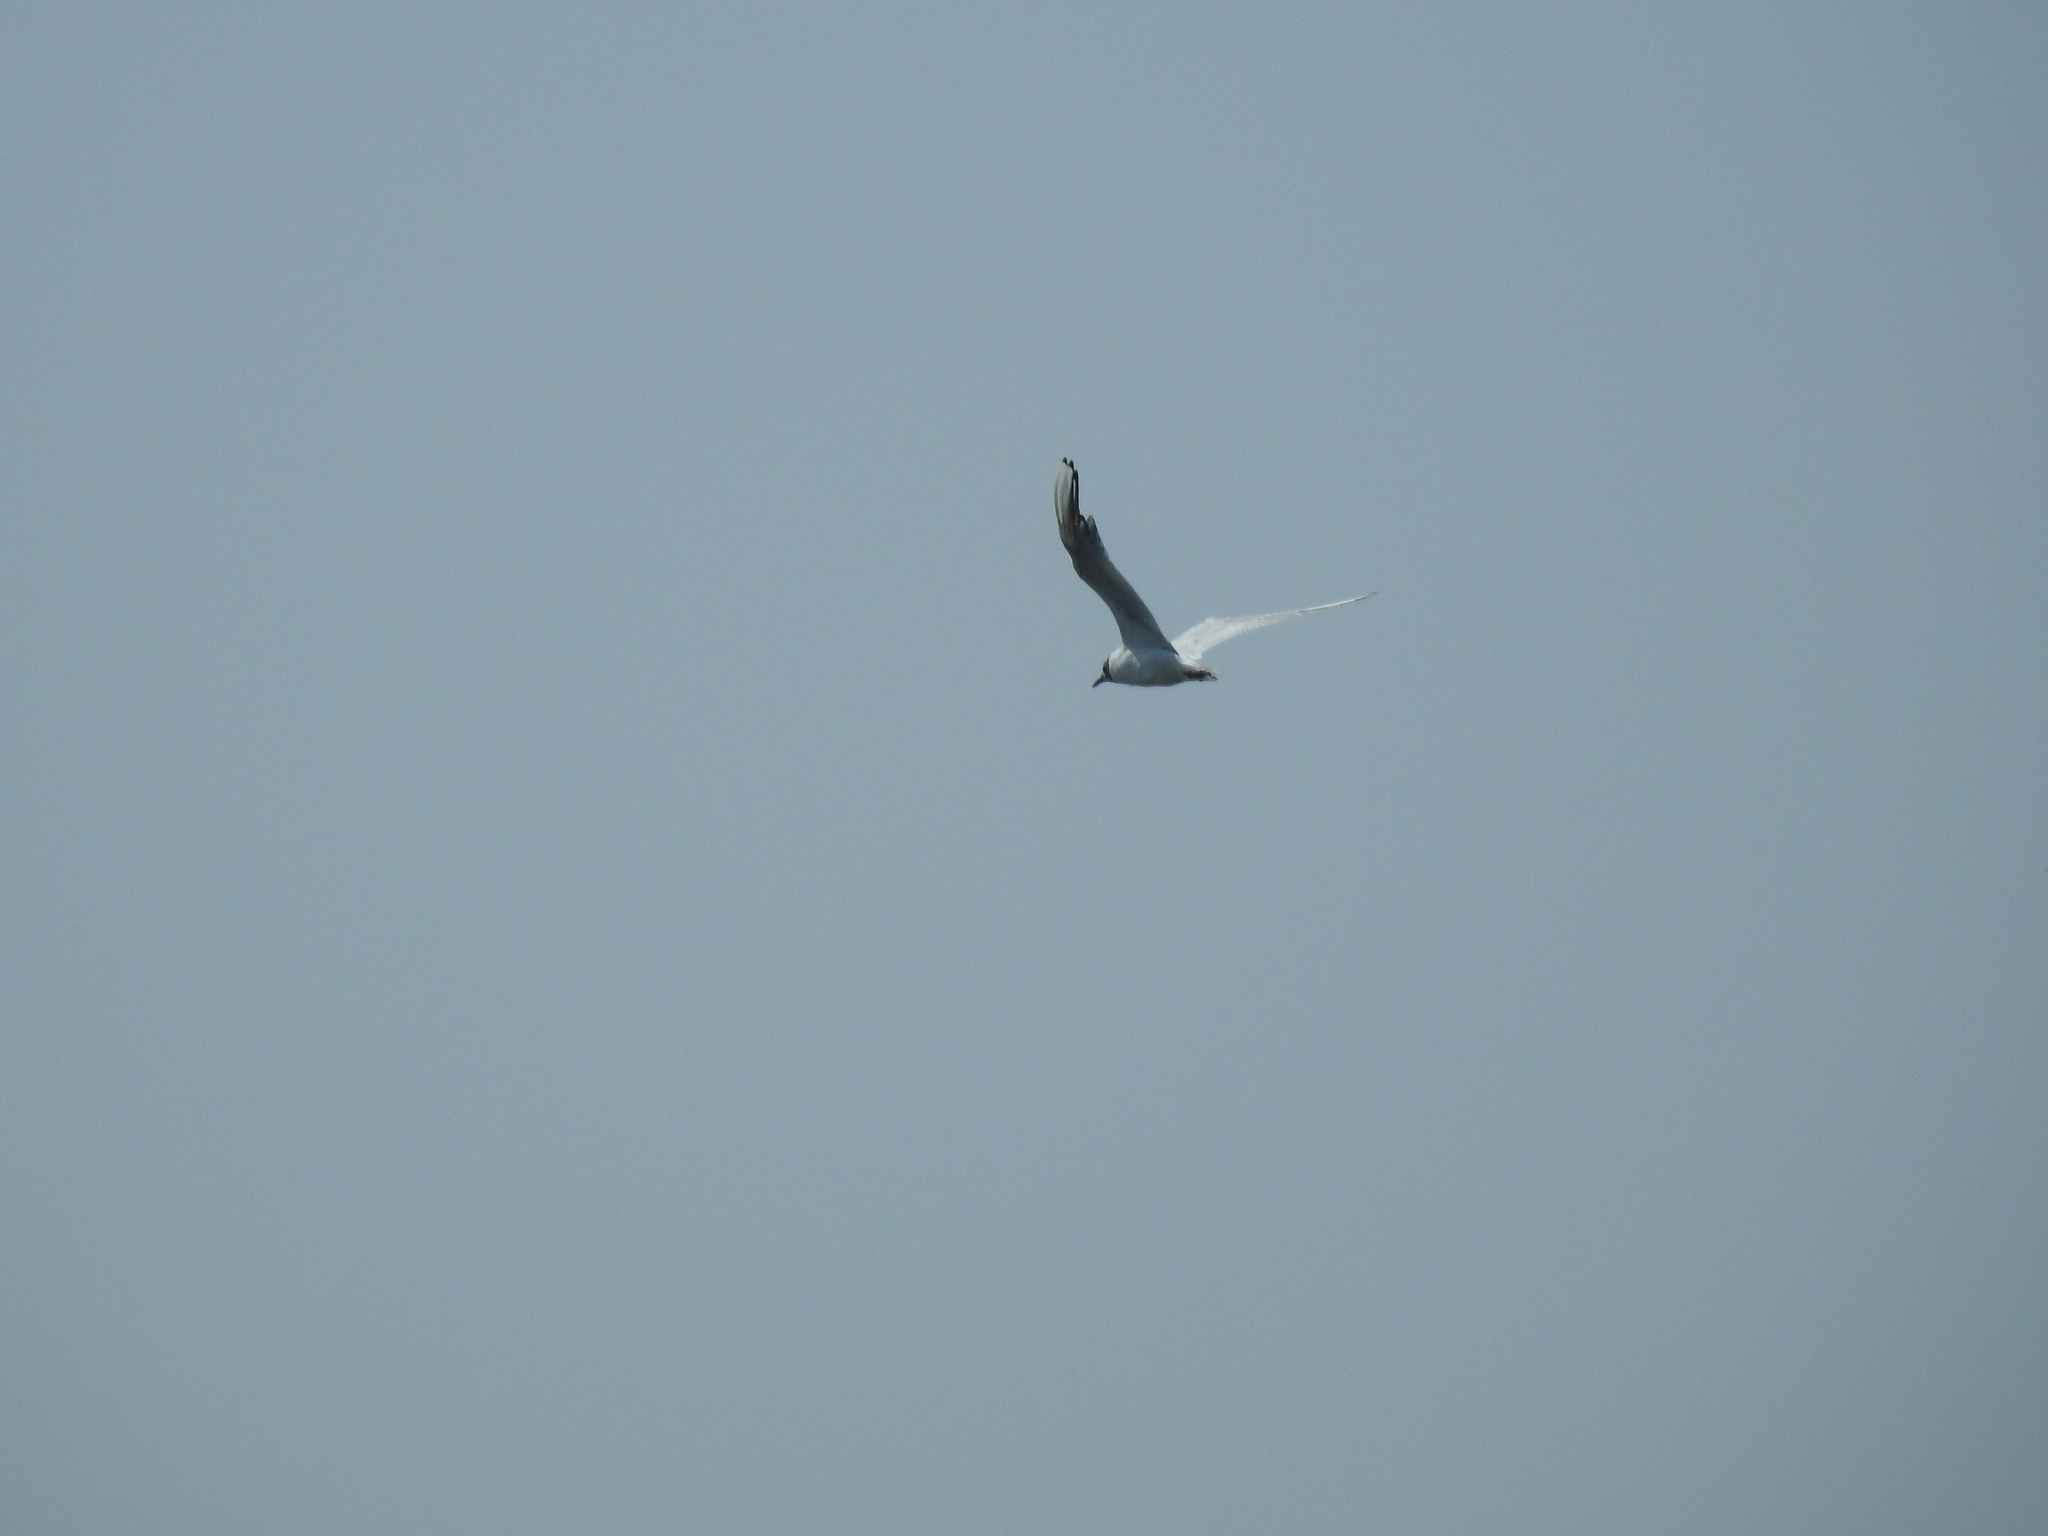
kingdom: Animalia
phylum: Chordata
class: Aves
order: Charadriiformes
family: Laridae
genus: Chroicocephalus
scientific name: Chroicocephalus ridibundus
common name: Black-headed gull
